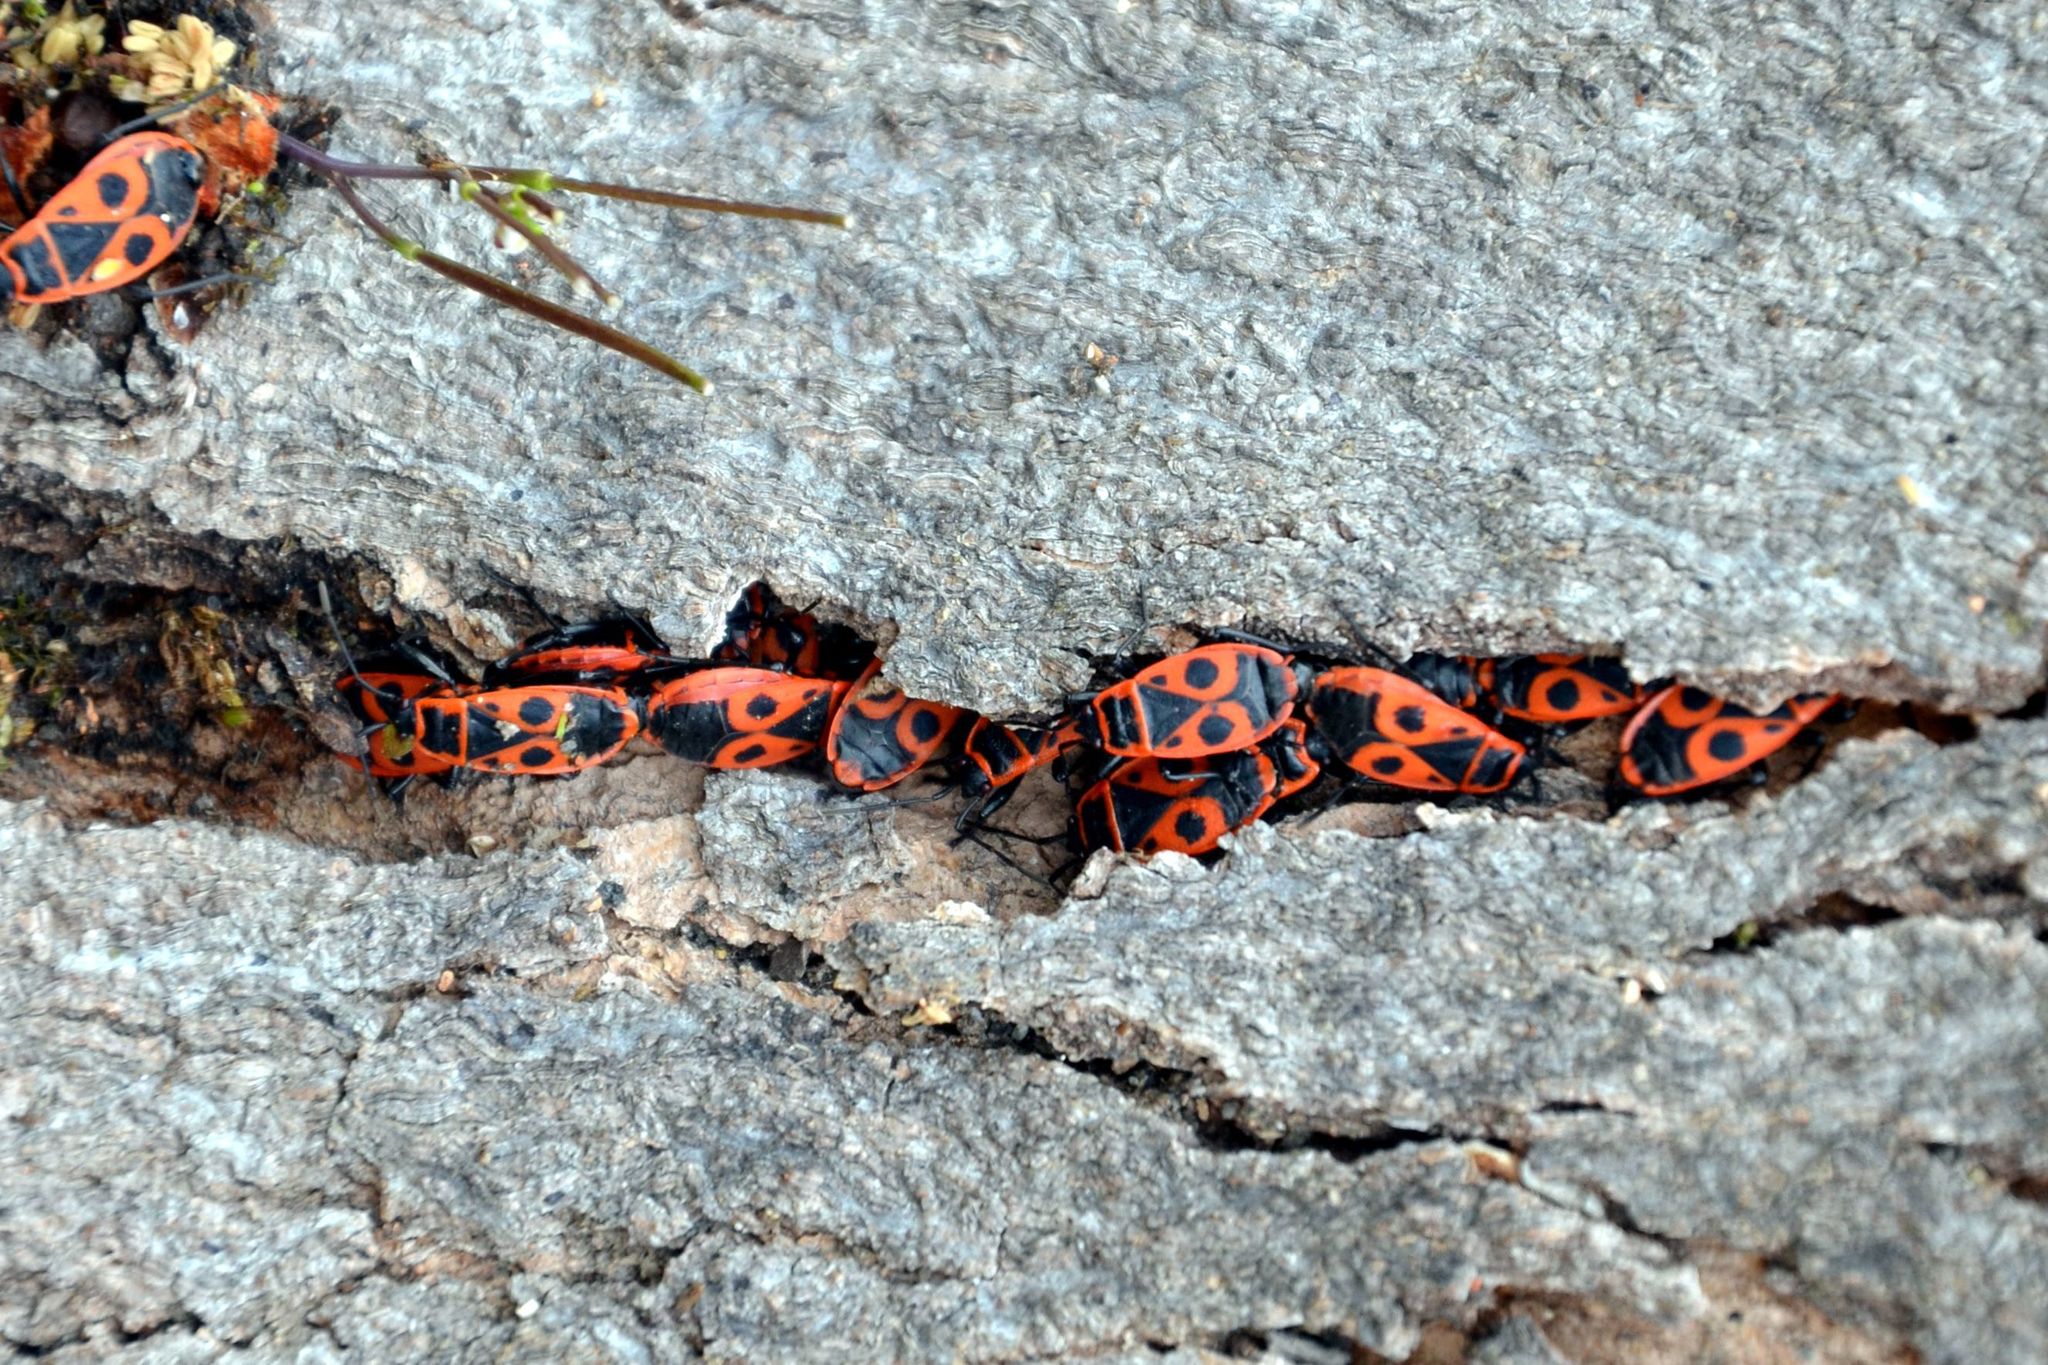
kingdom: Animalia
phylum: Arthropoda
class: Insecta
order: Hemiptera
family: Pyrrhocoridae
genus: Pyrrhocoris
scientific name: Pyrrhocoris apterus
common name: Firebug
